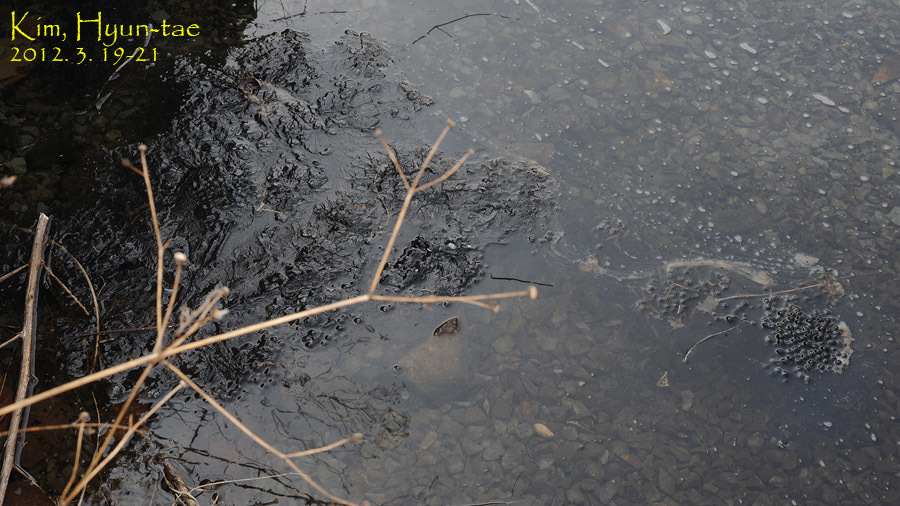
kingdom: Animalia
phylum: Chordata
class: Amphibia
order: Anura
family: Ranidae
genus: Rana
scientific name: Rana huanrenensis
